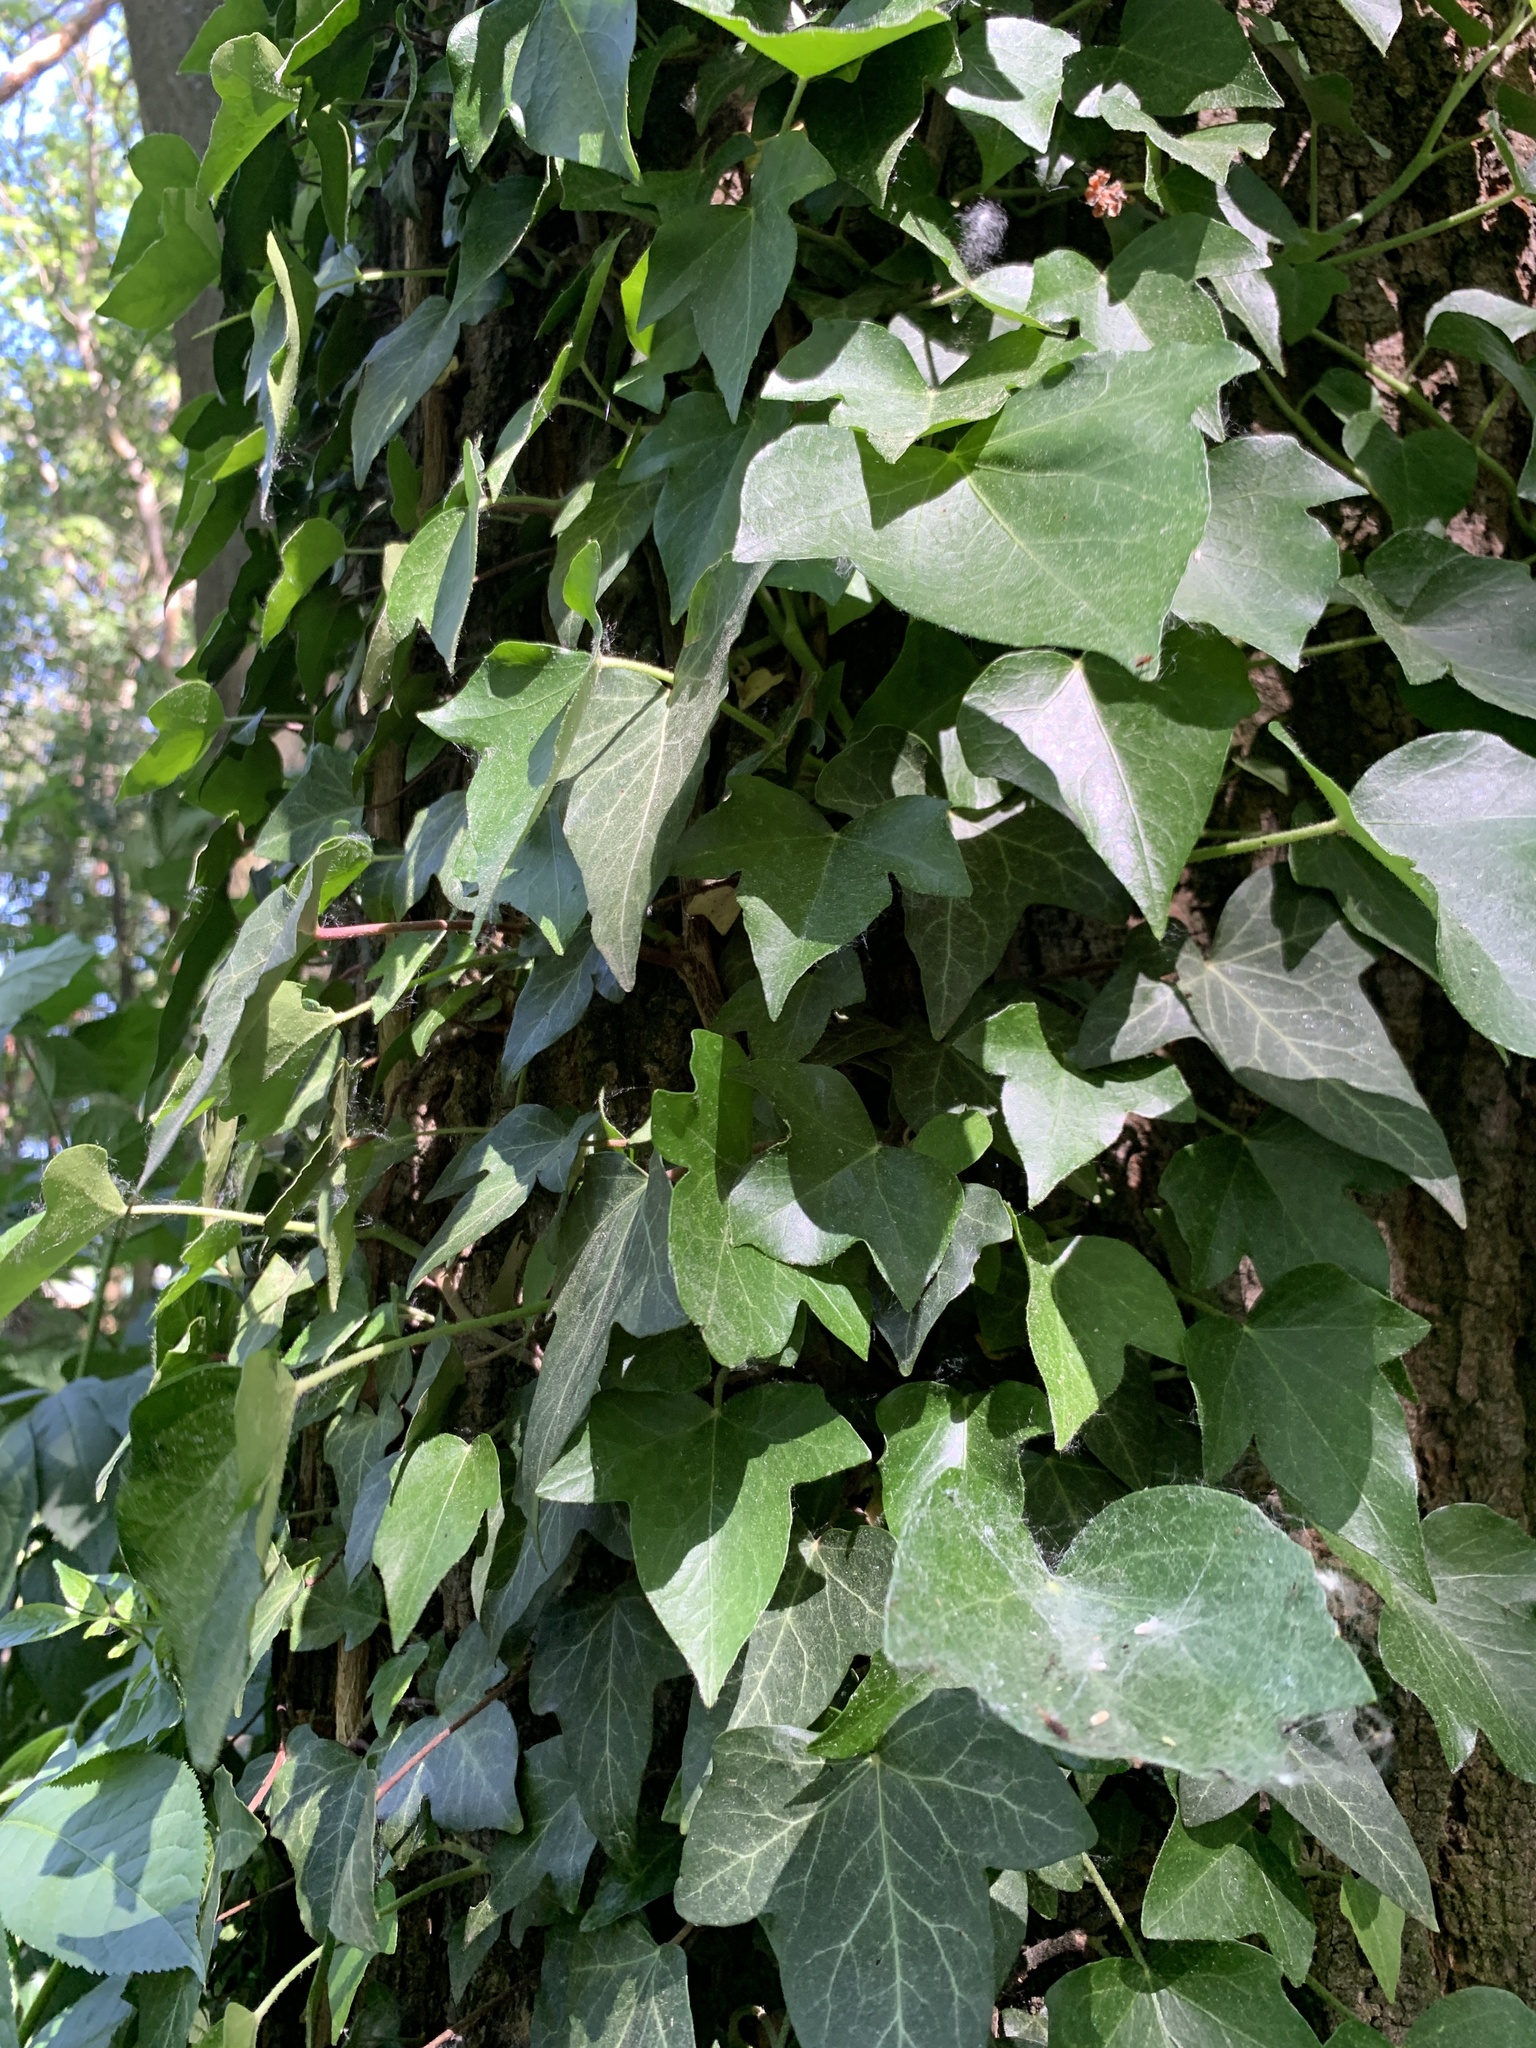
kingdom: Plantae
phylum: Tracheophyta
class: Magnoliopsida
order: Apiales
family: Araliaceae
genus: Hedera
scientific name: Hedera helix
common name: Ivy
